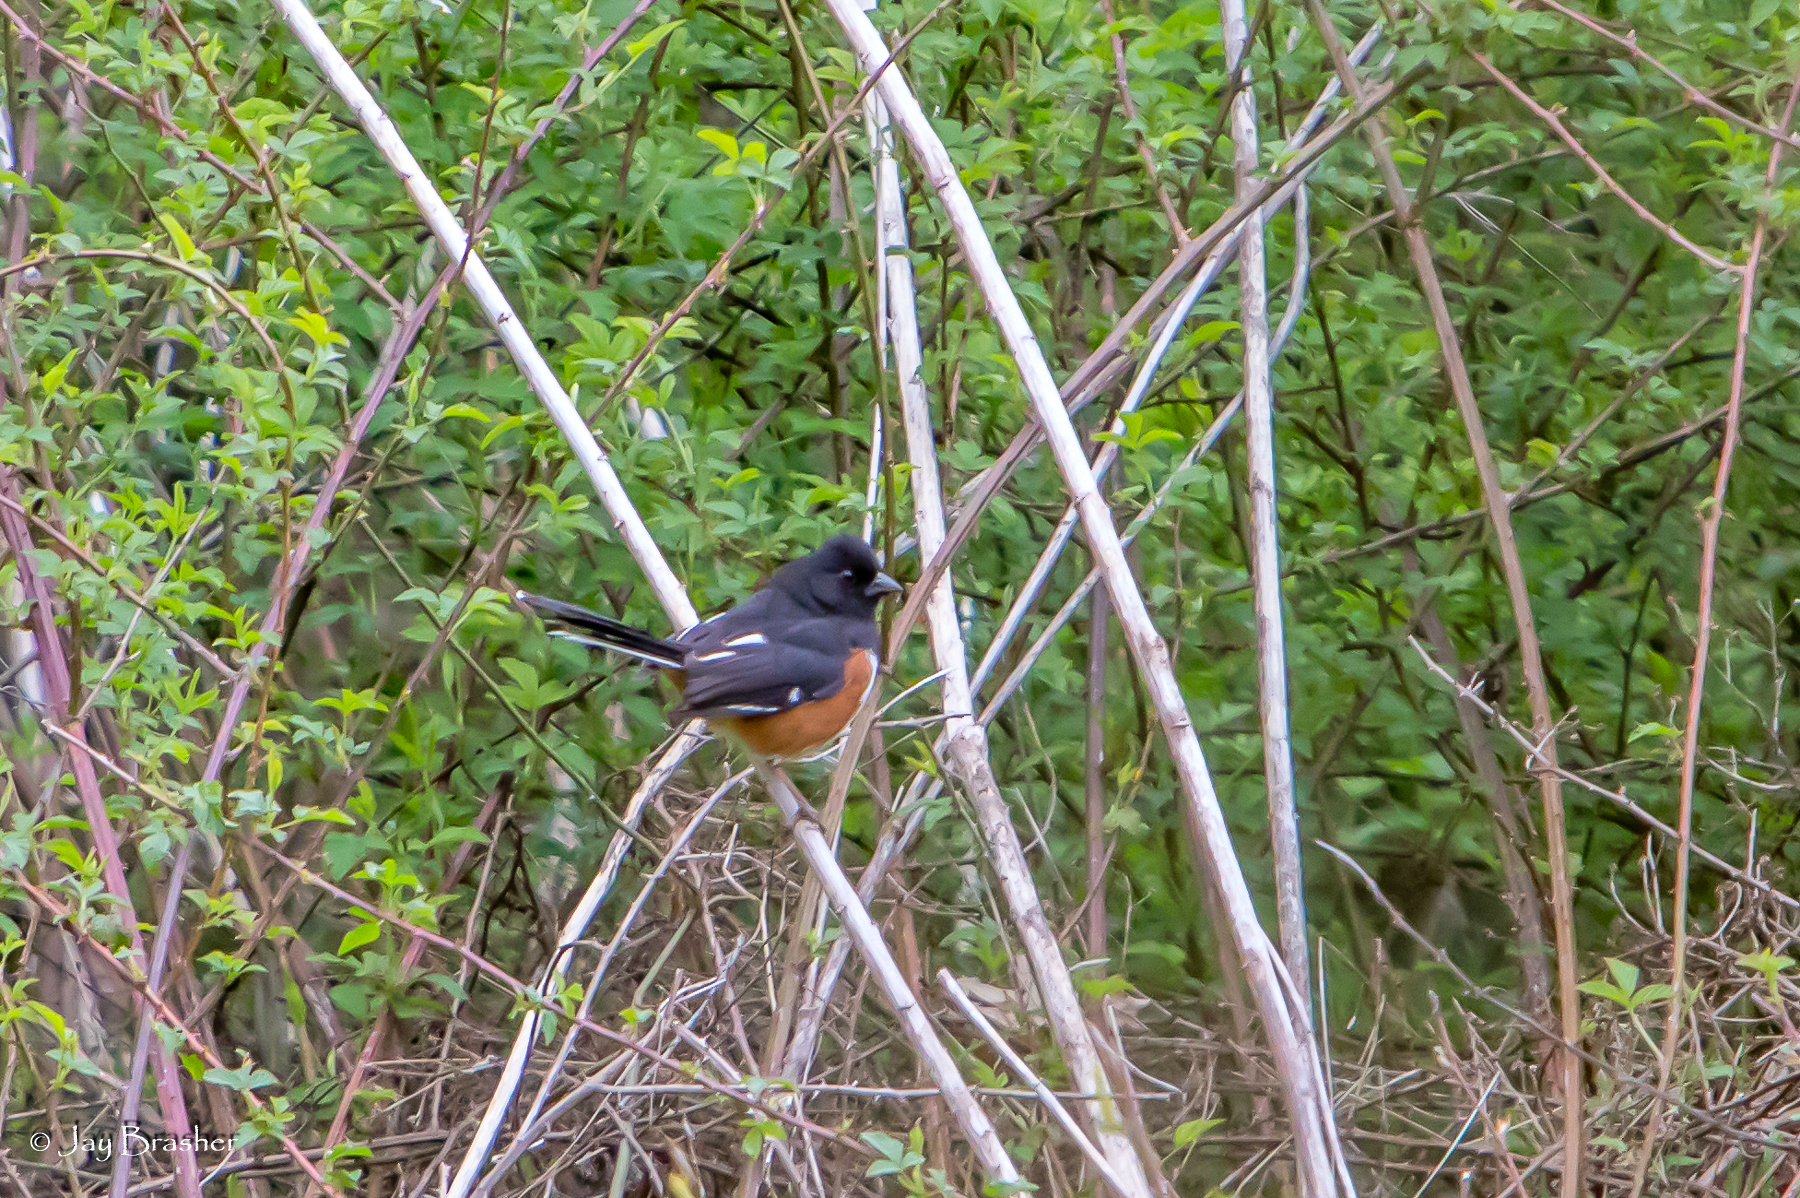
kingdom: Animalia
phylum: Chordata
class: Aves
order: Passeriformes
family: Passerellidae
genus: Pipilo
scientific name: Pipilo erythrophthalmus
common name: Eastern towhee
